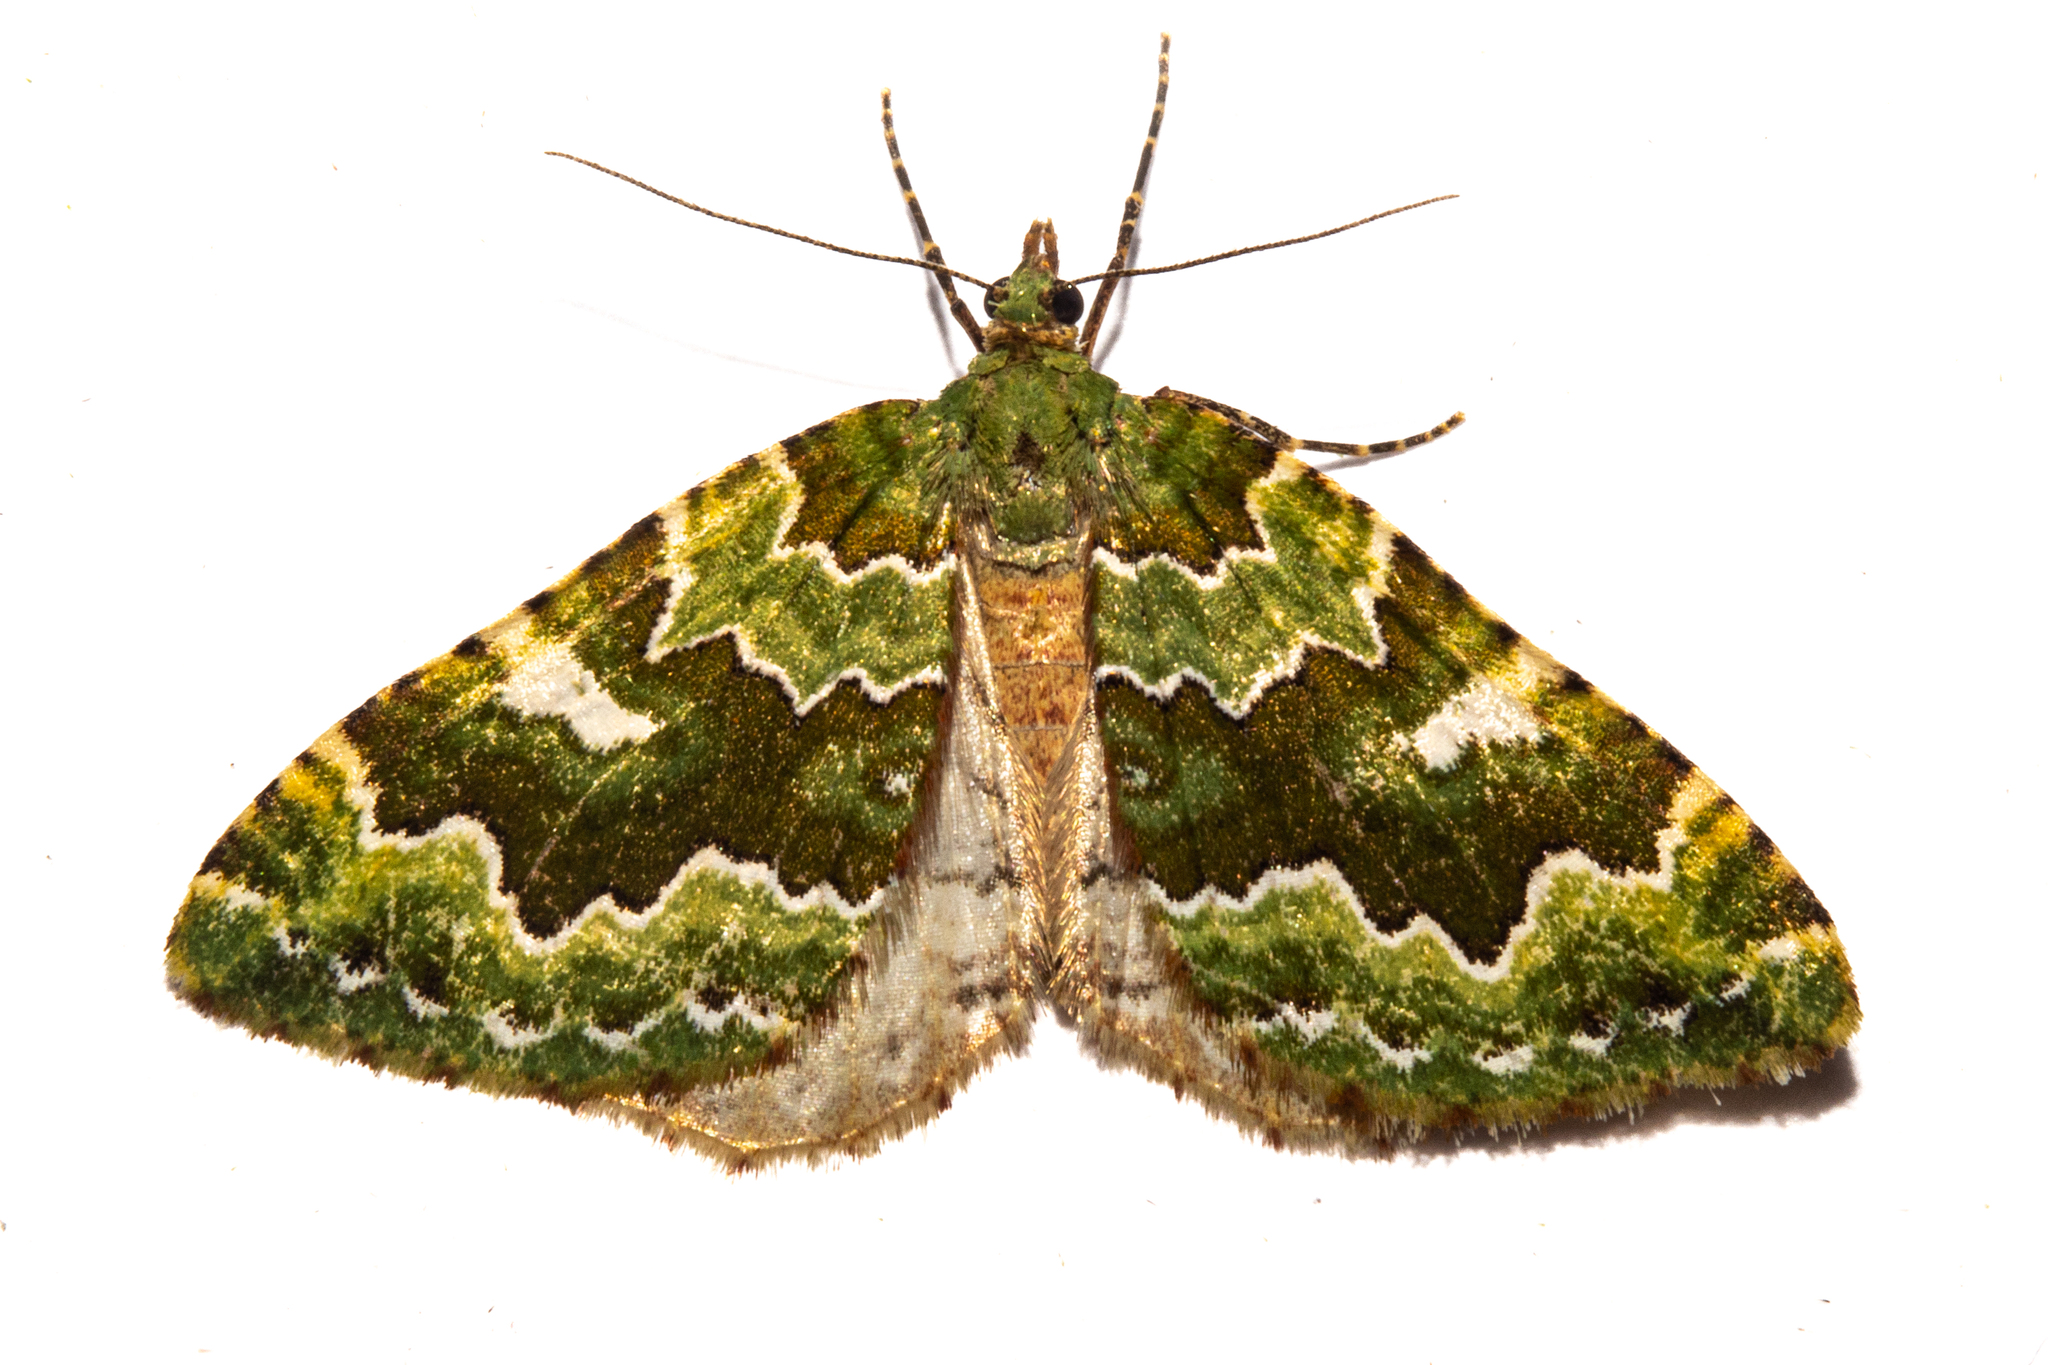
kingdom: Animalia
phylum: Arthropoda
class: Insecta
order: Lepidoptera
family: Geometridae
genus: Asaphodes
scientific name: Asaphodes philpotti
